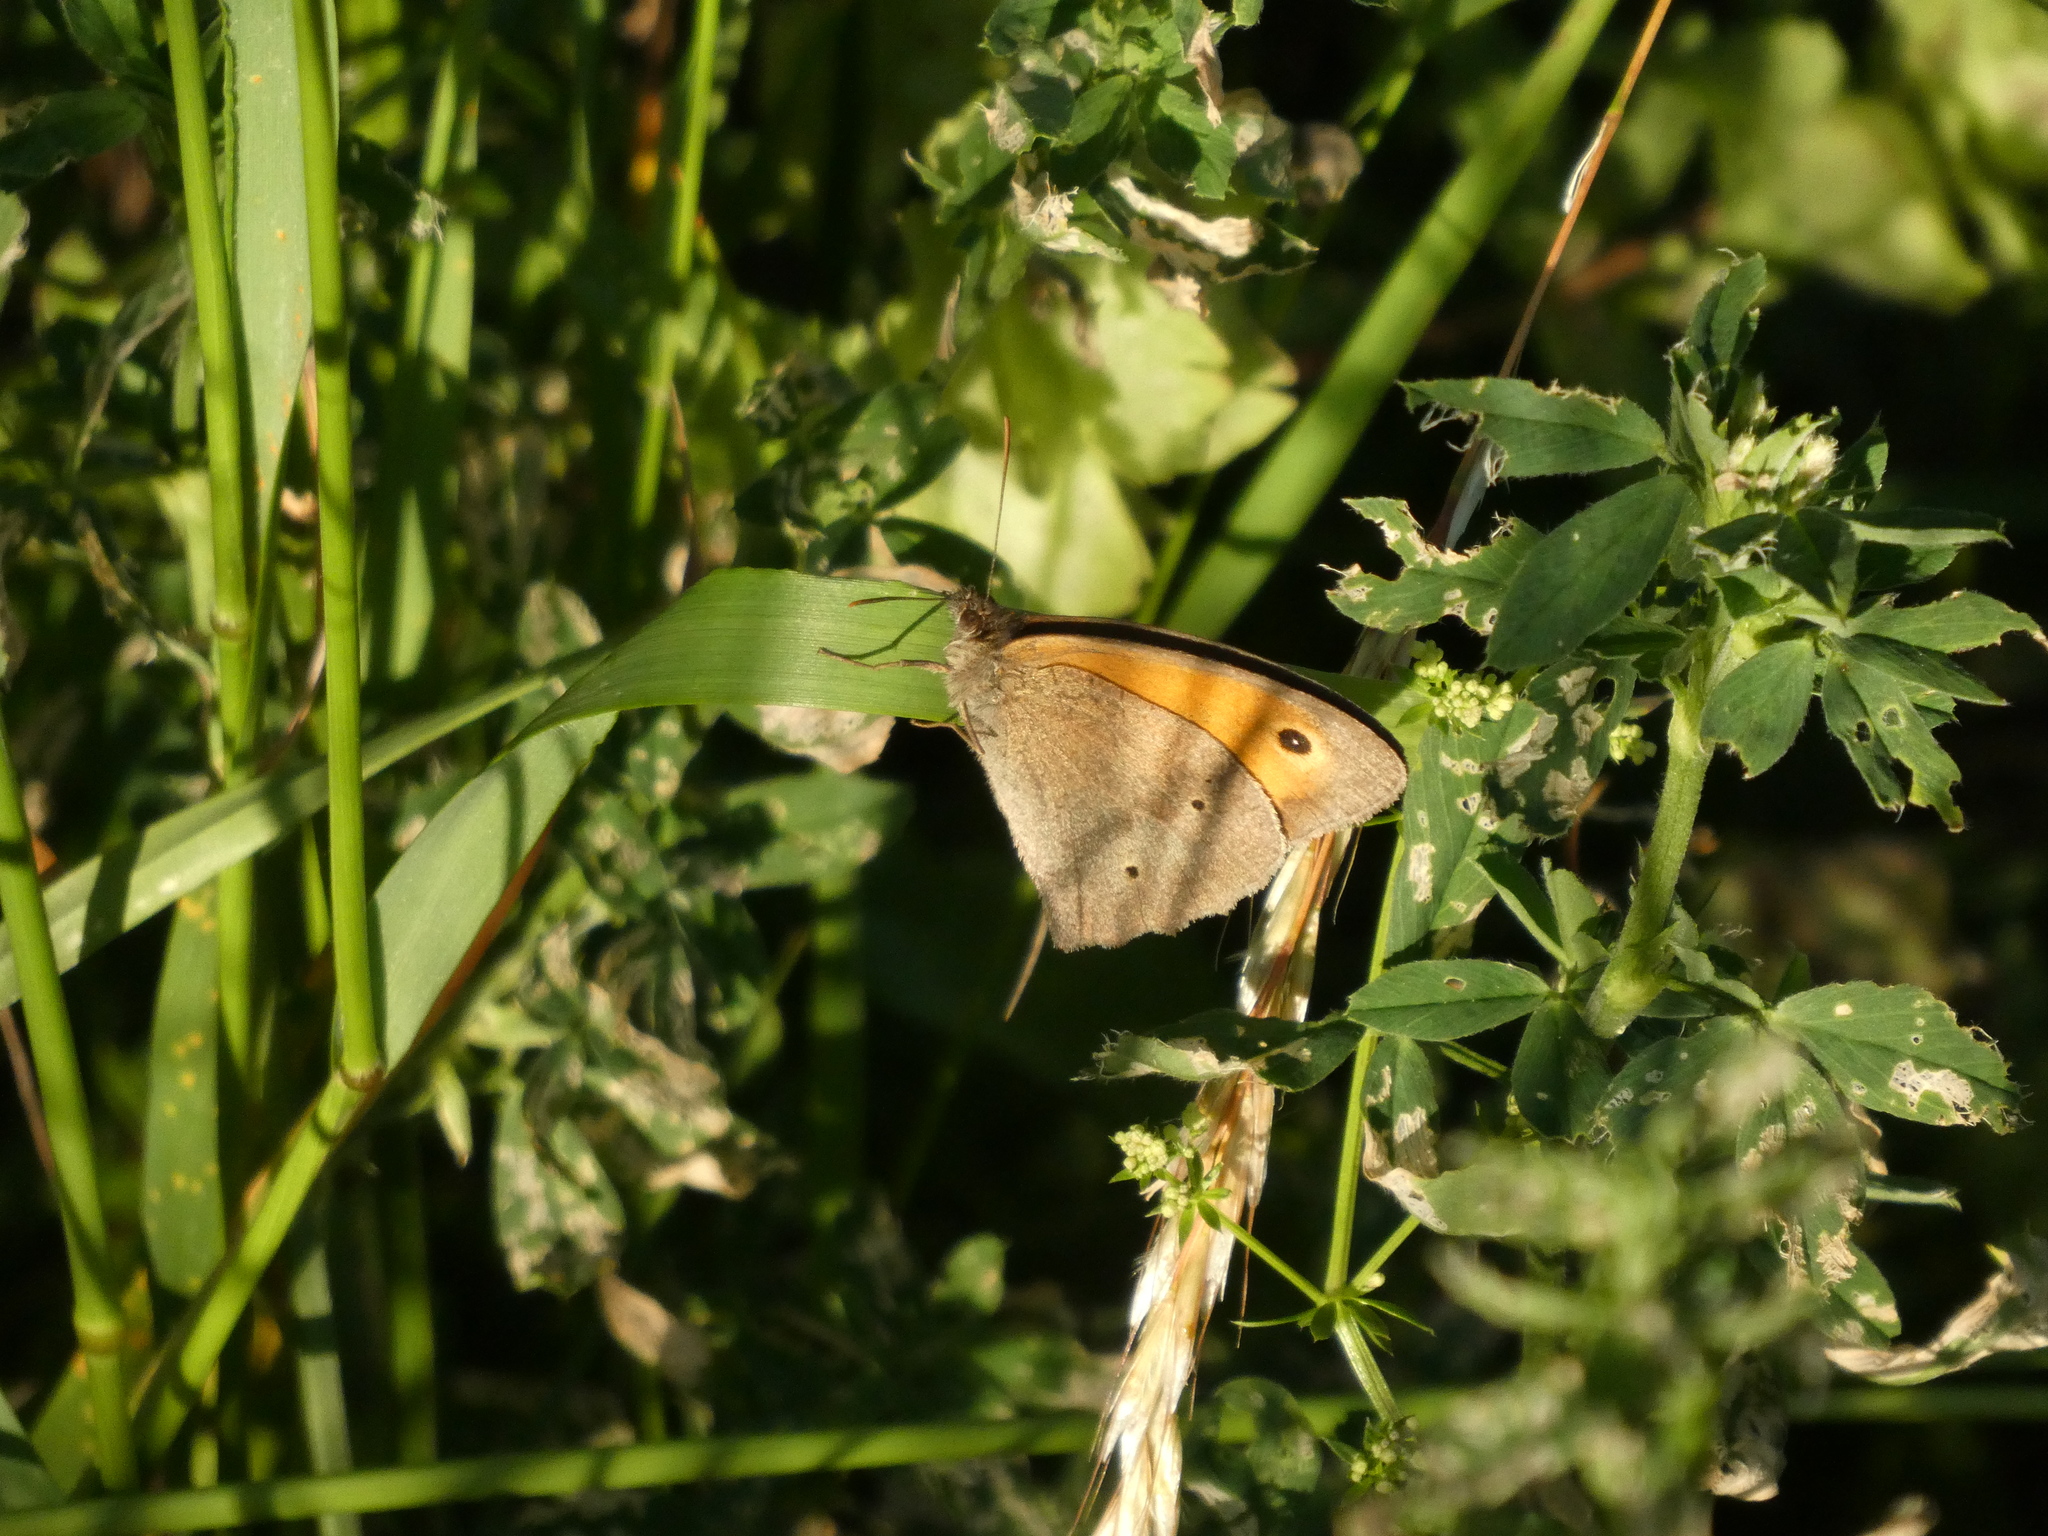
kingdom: Animalia
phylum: Arthropoda
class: Insecta
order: Lepidoptera
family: Nymphalidae
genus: Maniola
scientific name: Maniola jurtina
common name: Meadow brown
